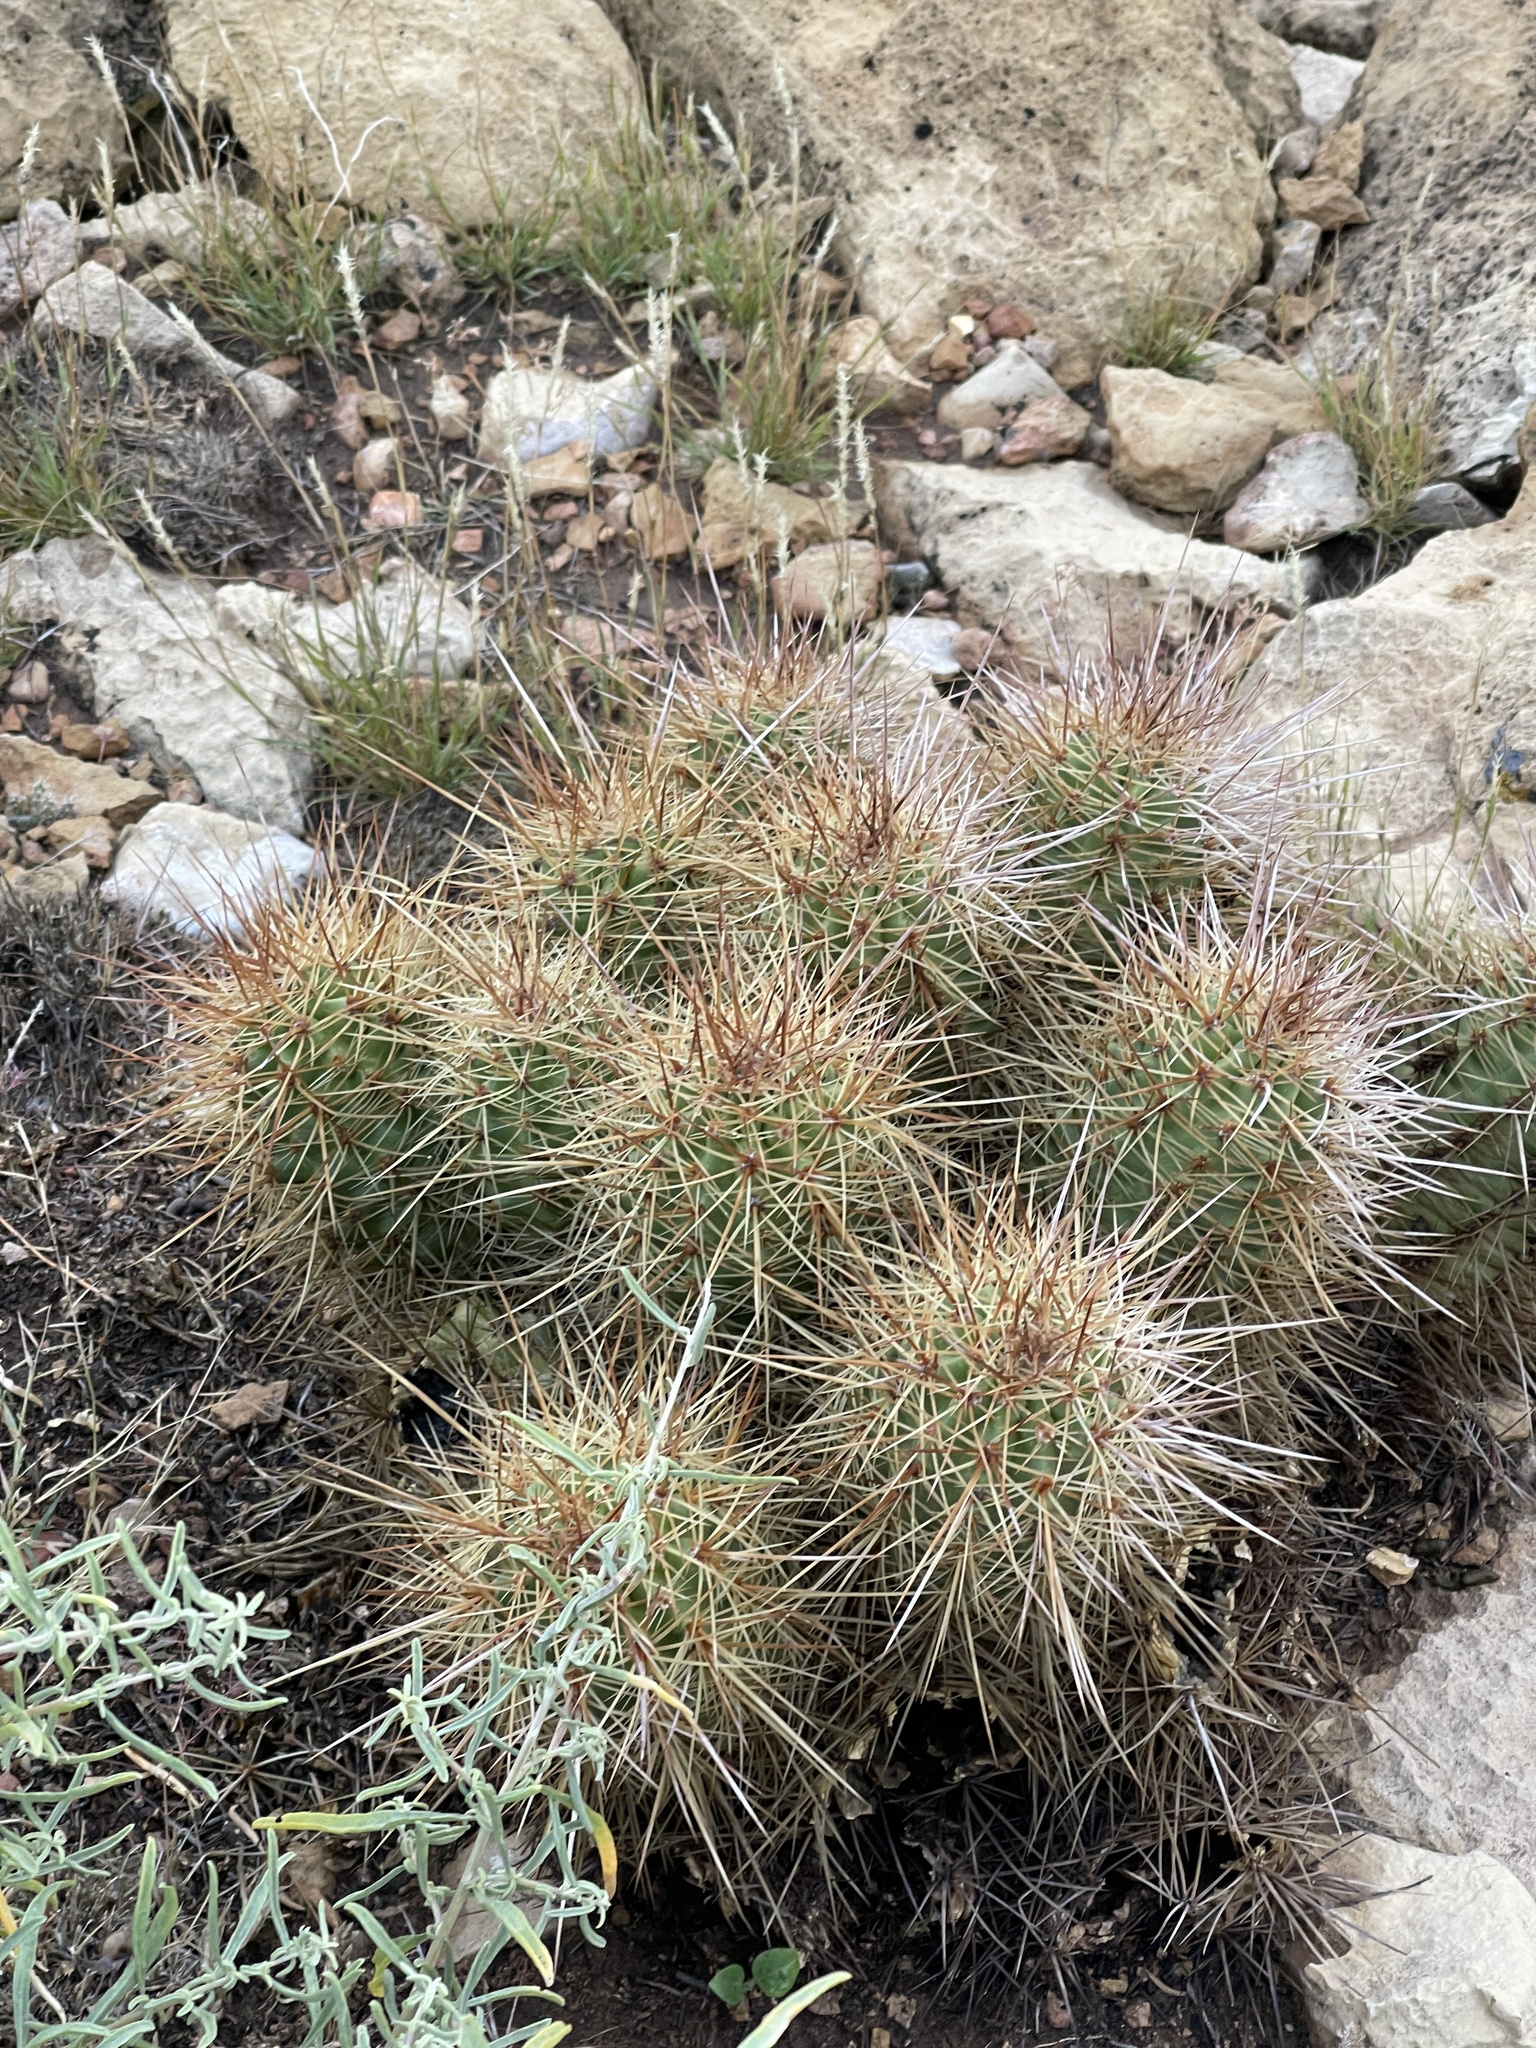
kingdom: Plantae
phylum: Tracheophyta
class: Magnoliopsida
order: Caryophyllales
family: Cactaceae
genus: Echinocereus
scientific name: Echinocereus triglochidiatus
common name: Claretcup hedgehog
